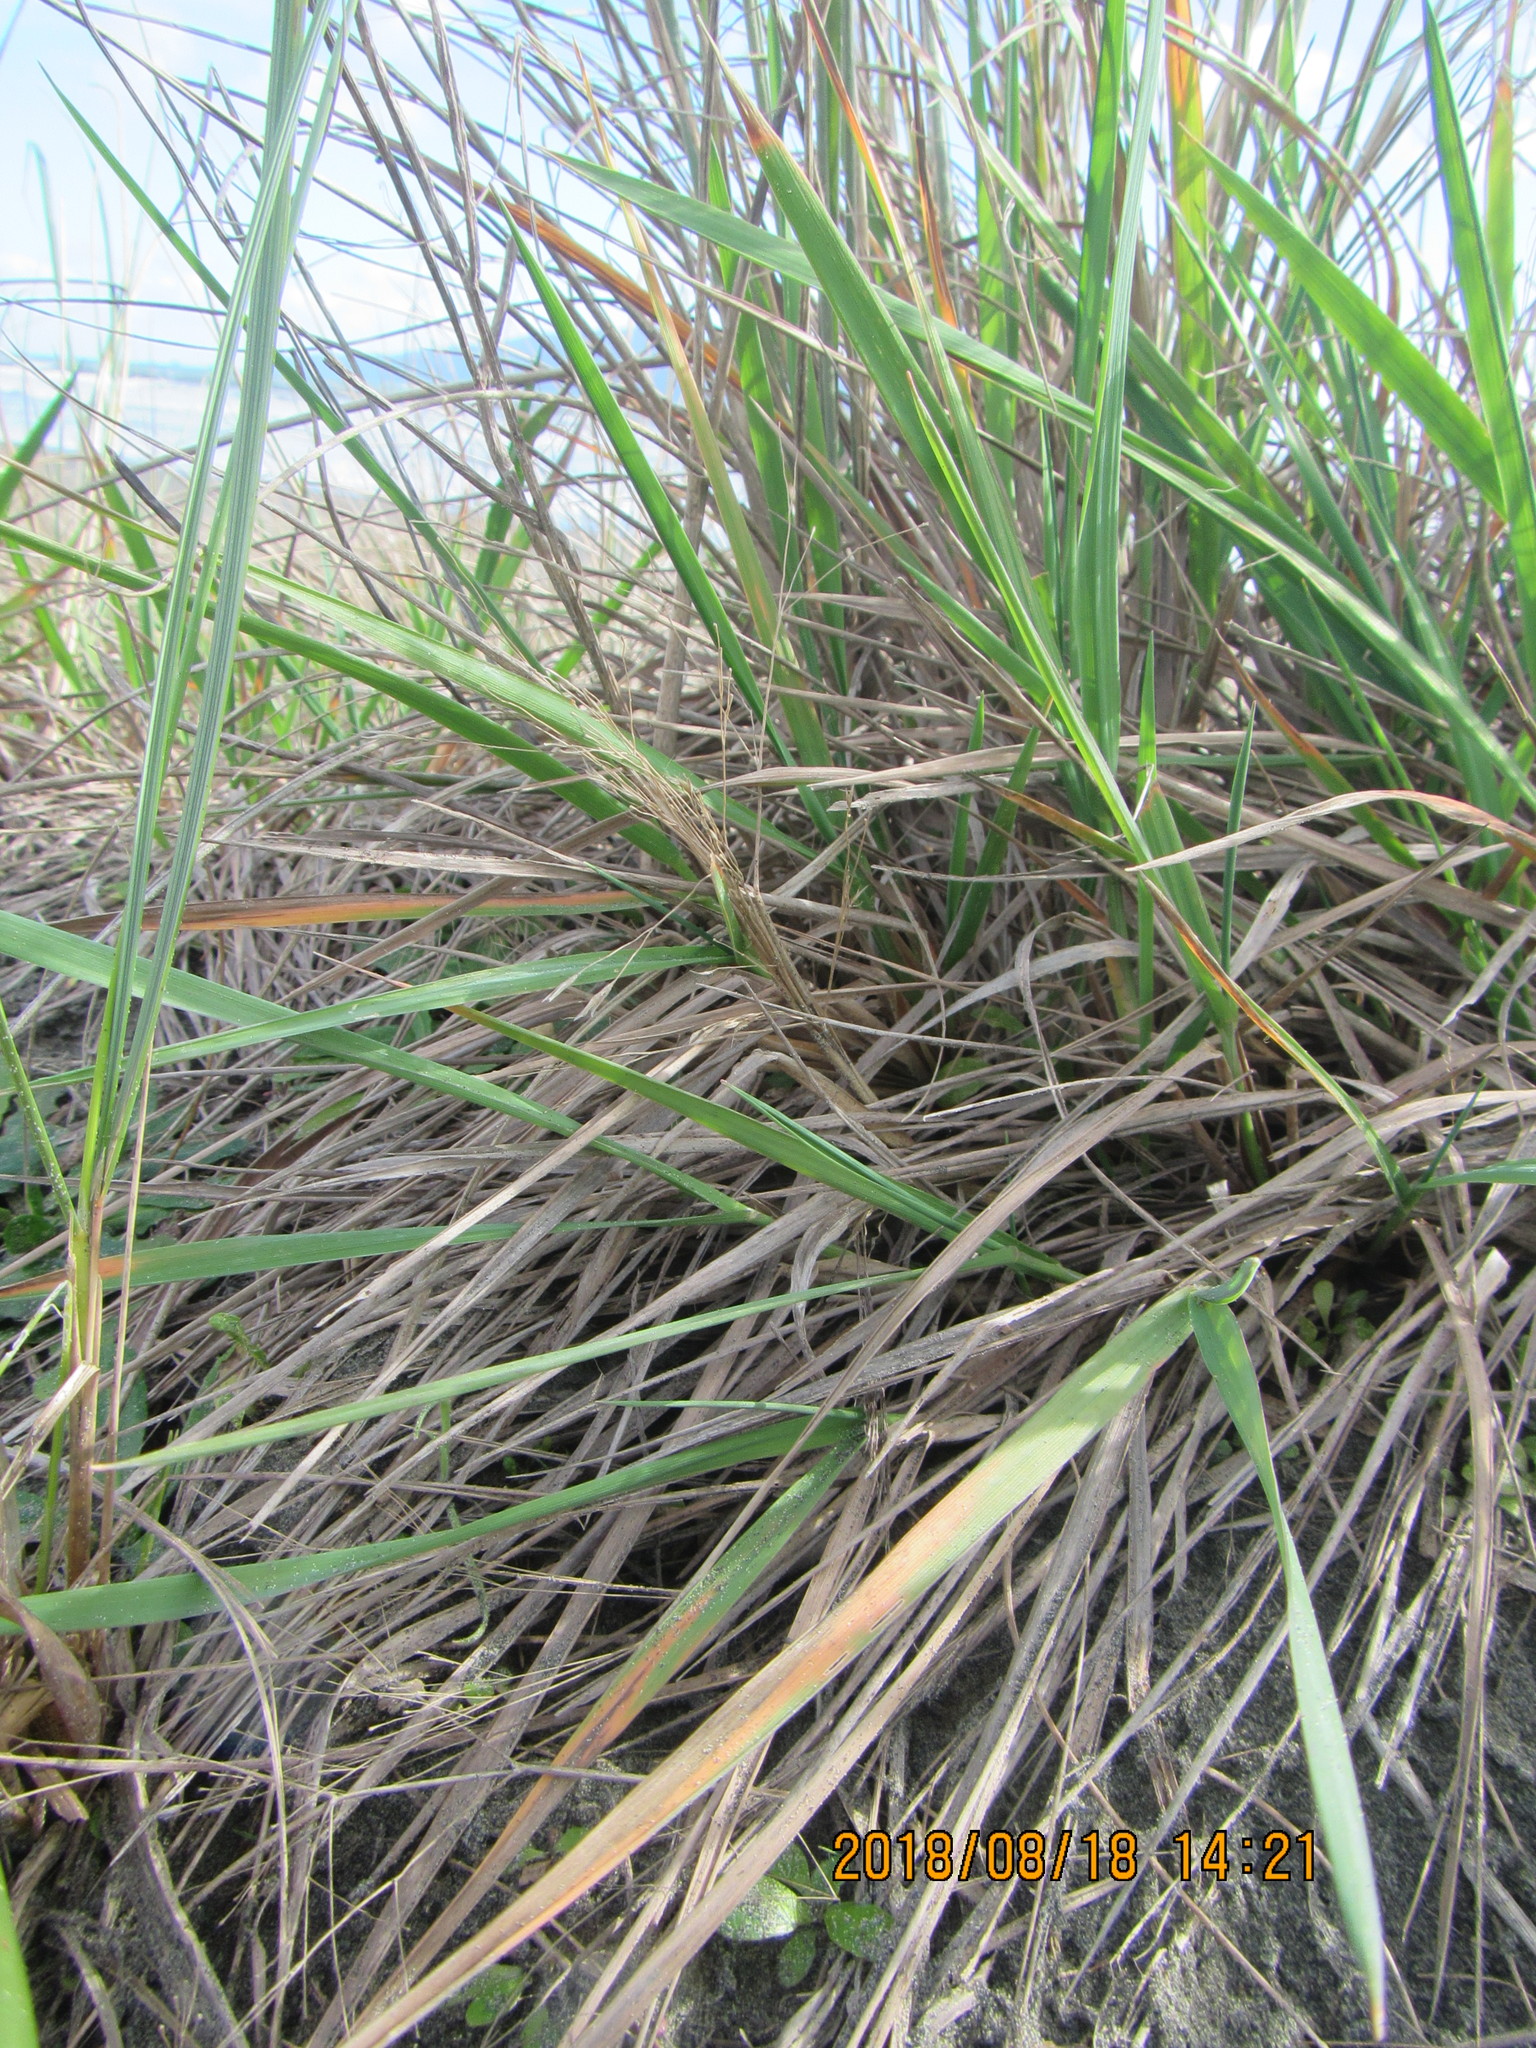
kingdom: Plantae
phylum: Tracheophyta
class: Liliopsida
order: Poales
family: Poaceae
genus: Lachnagrostis
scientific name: Lachnagrostis billardierei
